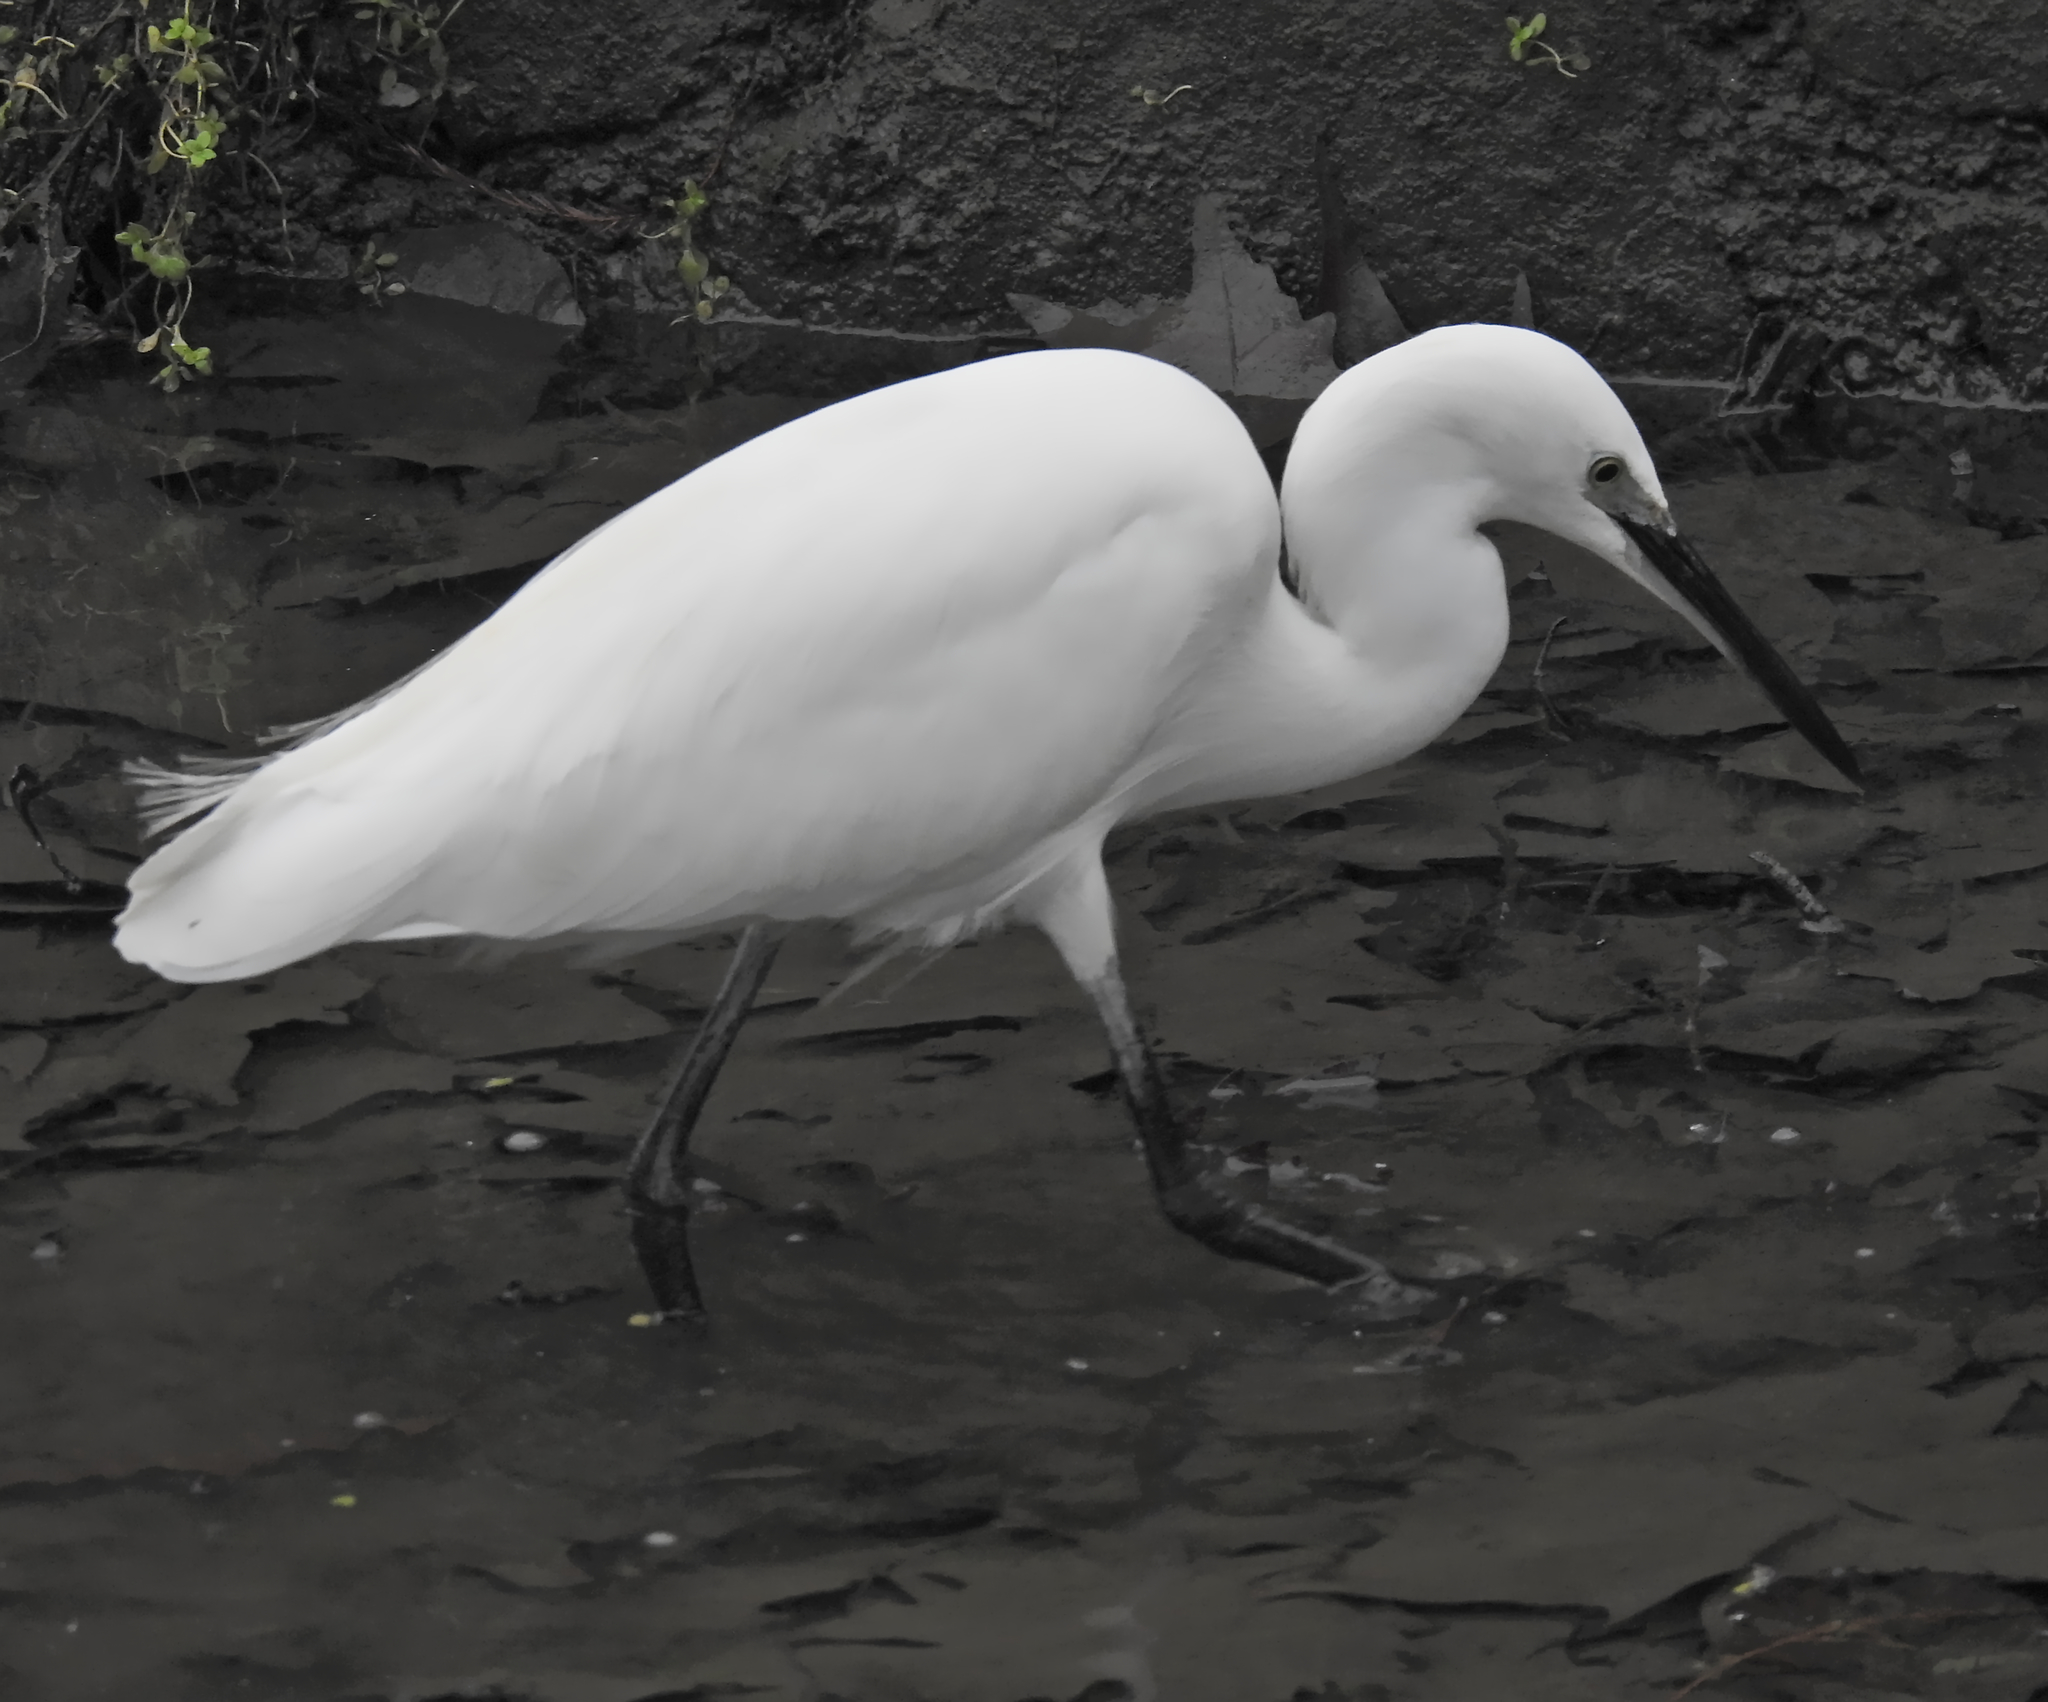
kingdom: Animalia
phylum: Chordata
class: Aves
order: Pelecaniformes
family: Ardeidae
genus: Egretta
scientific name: Egretta garzetta
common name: Little egret
